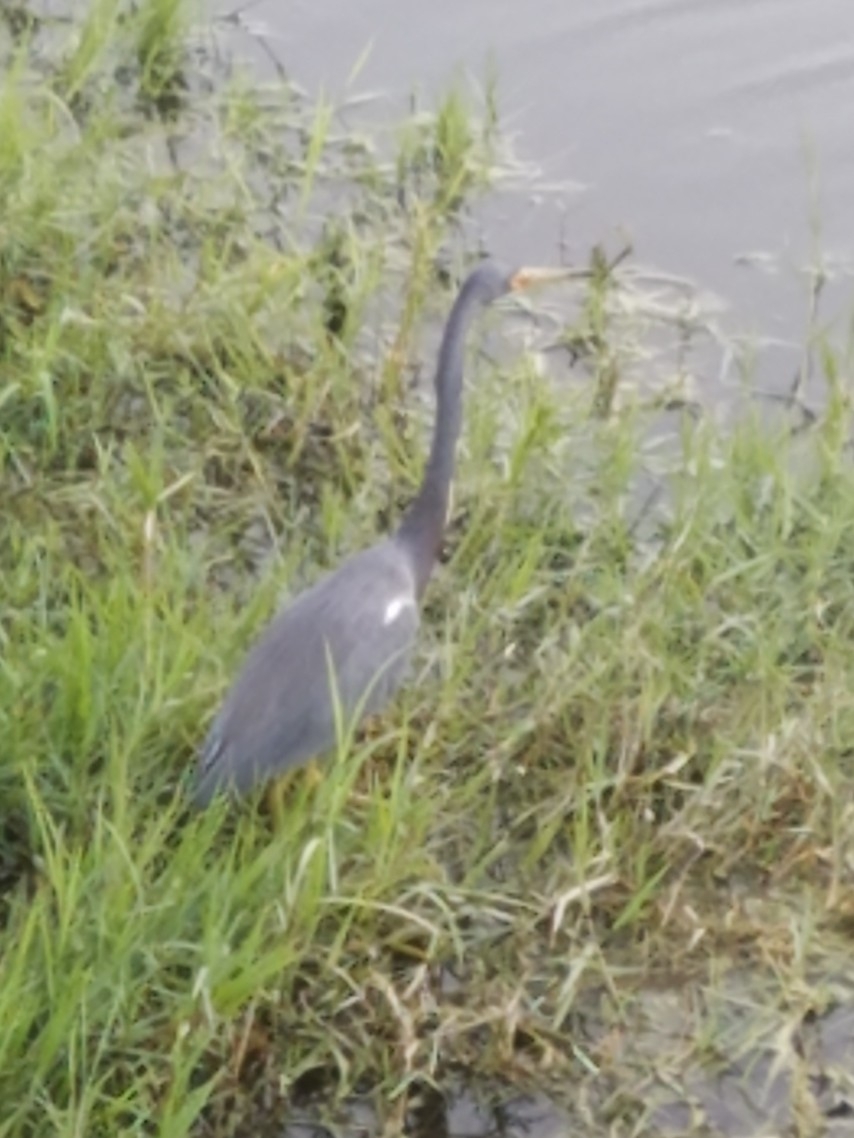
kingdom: Animalia
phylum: Chordata
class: Aves
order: Pelecaniformes
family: Ardeidae
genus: Egretta
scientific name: Egretta tricolor
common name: Tricolored heron
